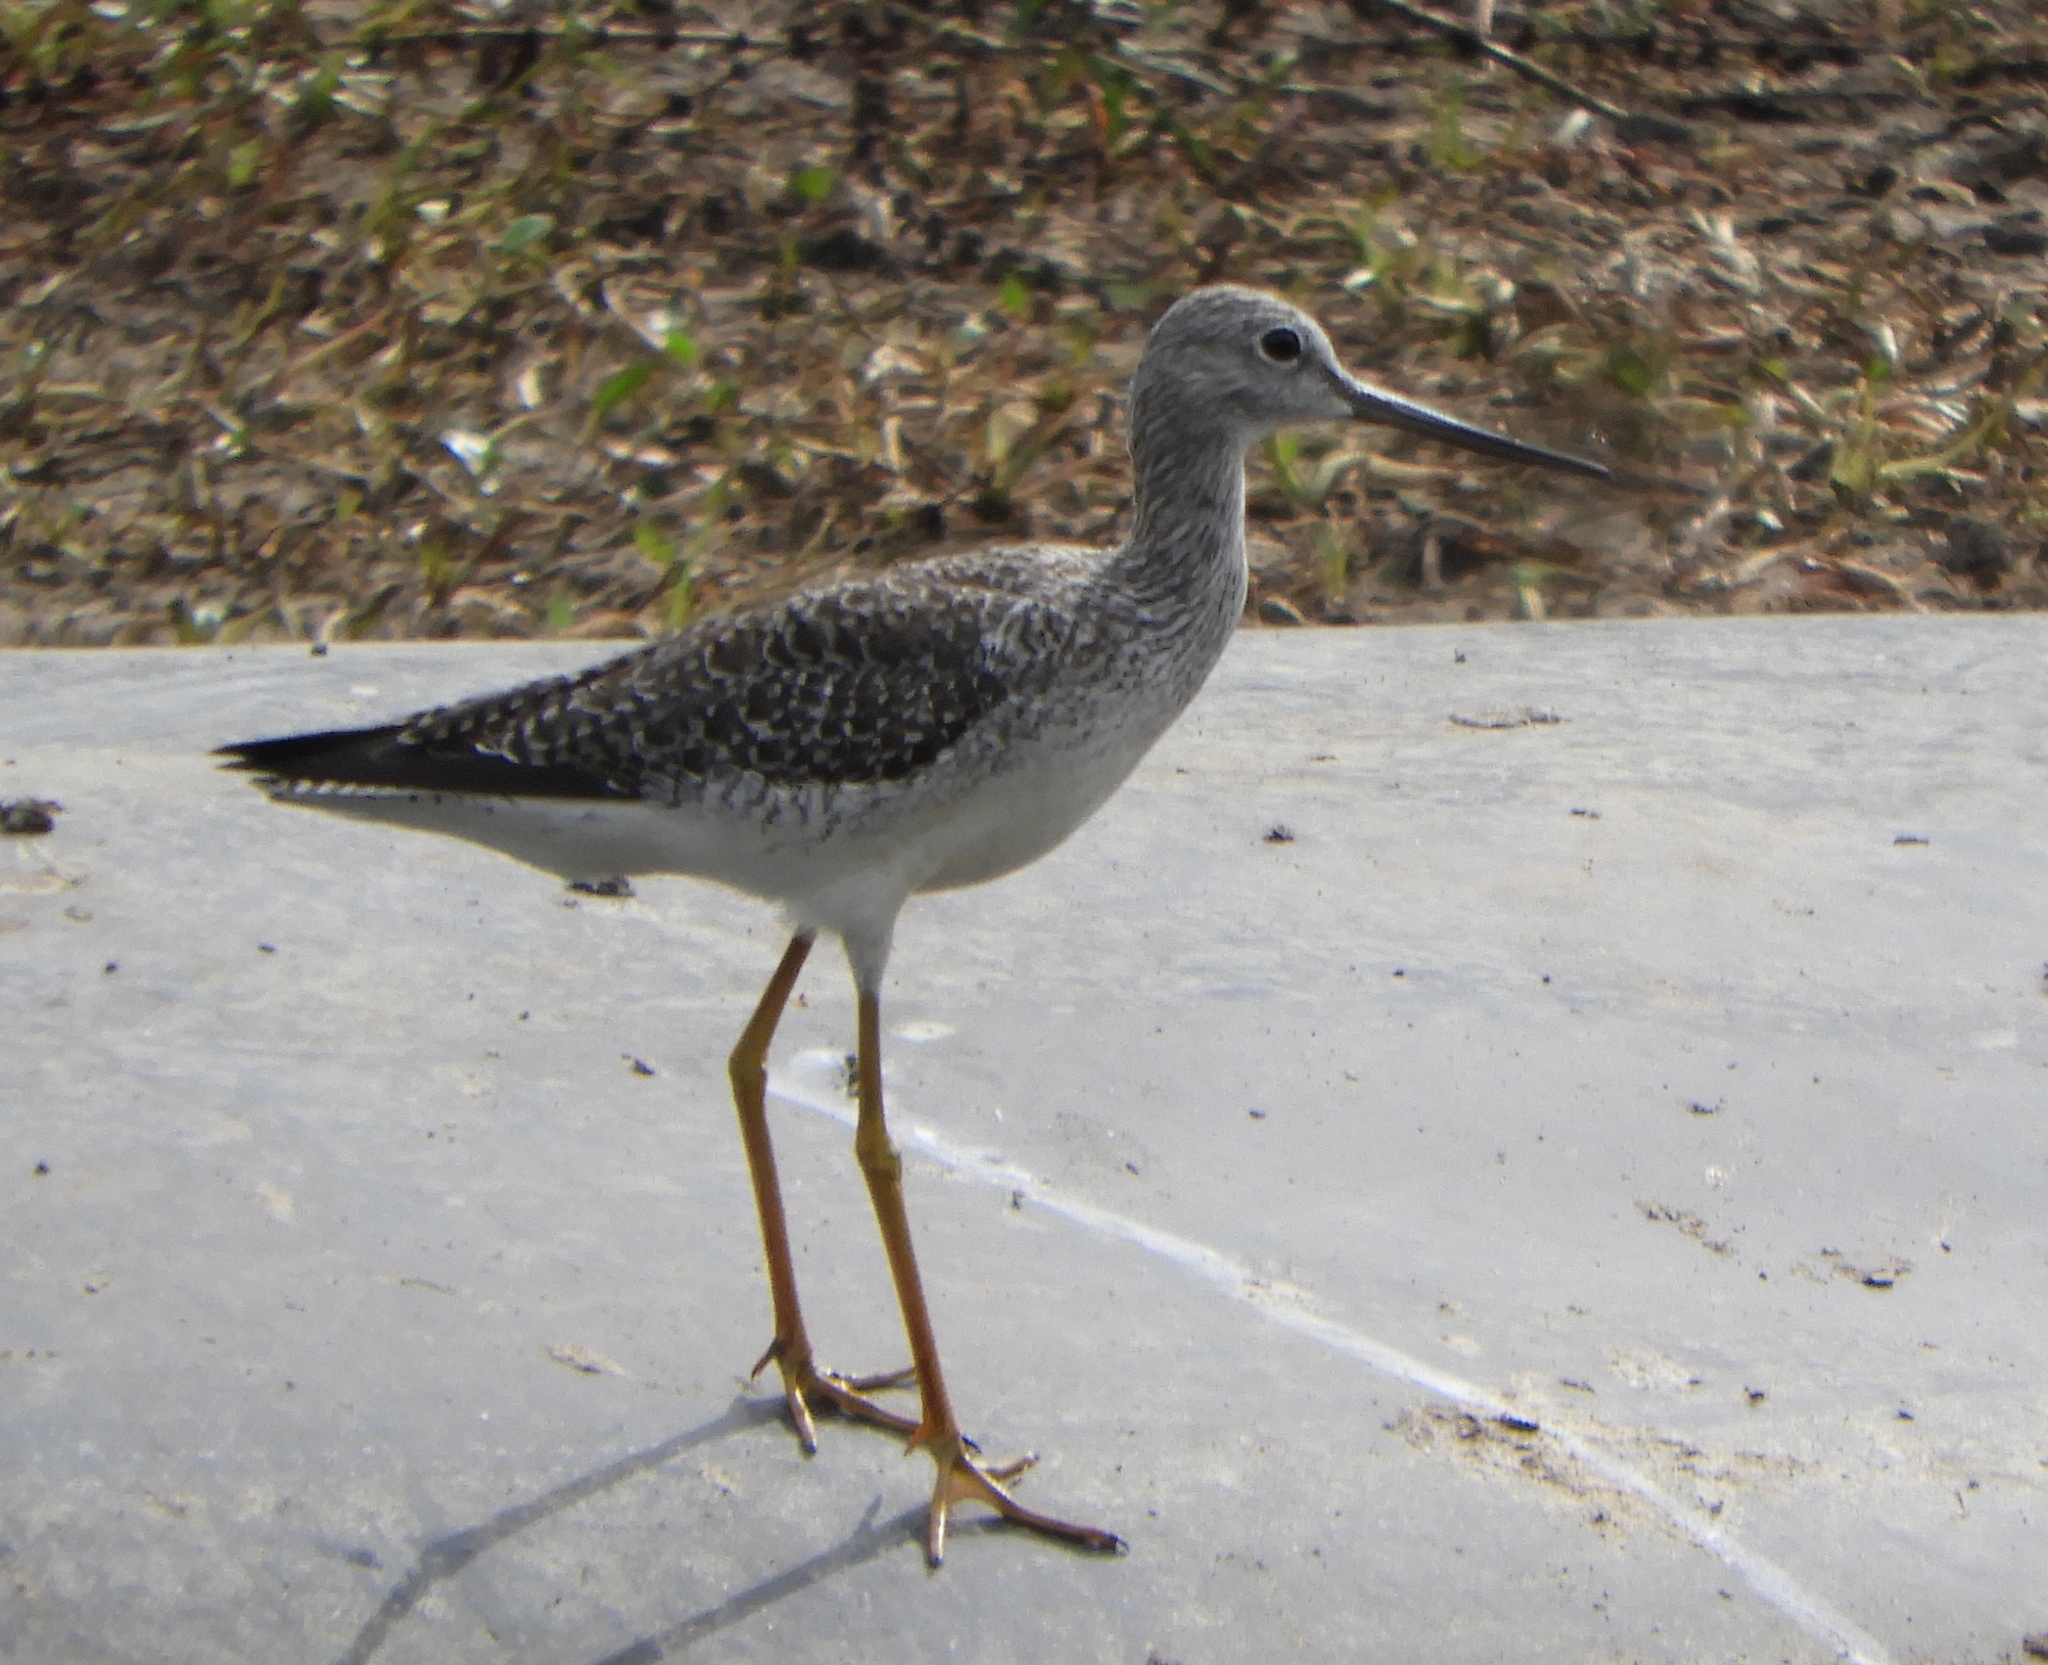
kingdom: Animalia
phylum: Chordata
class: Aves
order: Charadriiformes
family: Scolopacidae
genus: Tringa
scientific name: Tringa melanoleuca
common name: Greater yellowlegs
